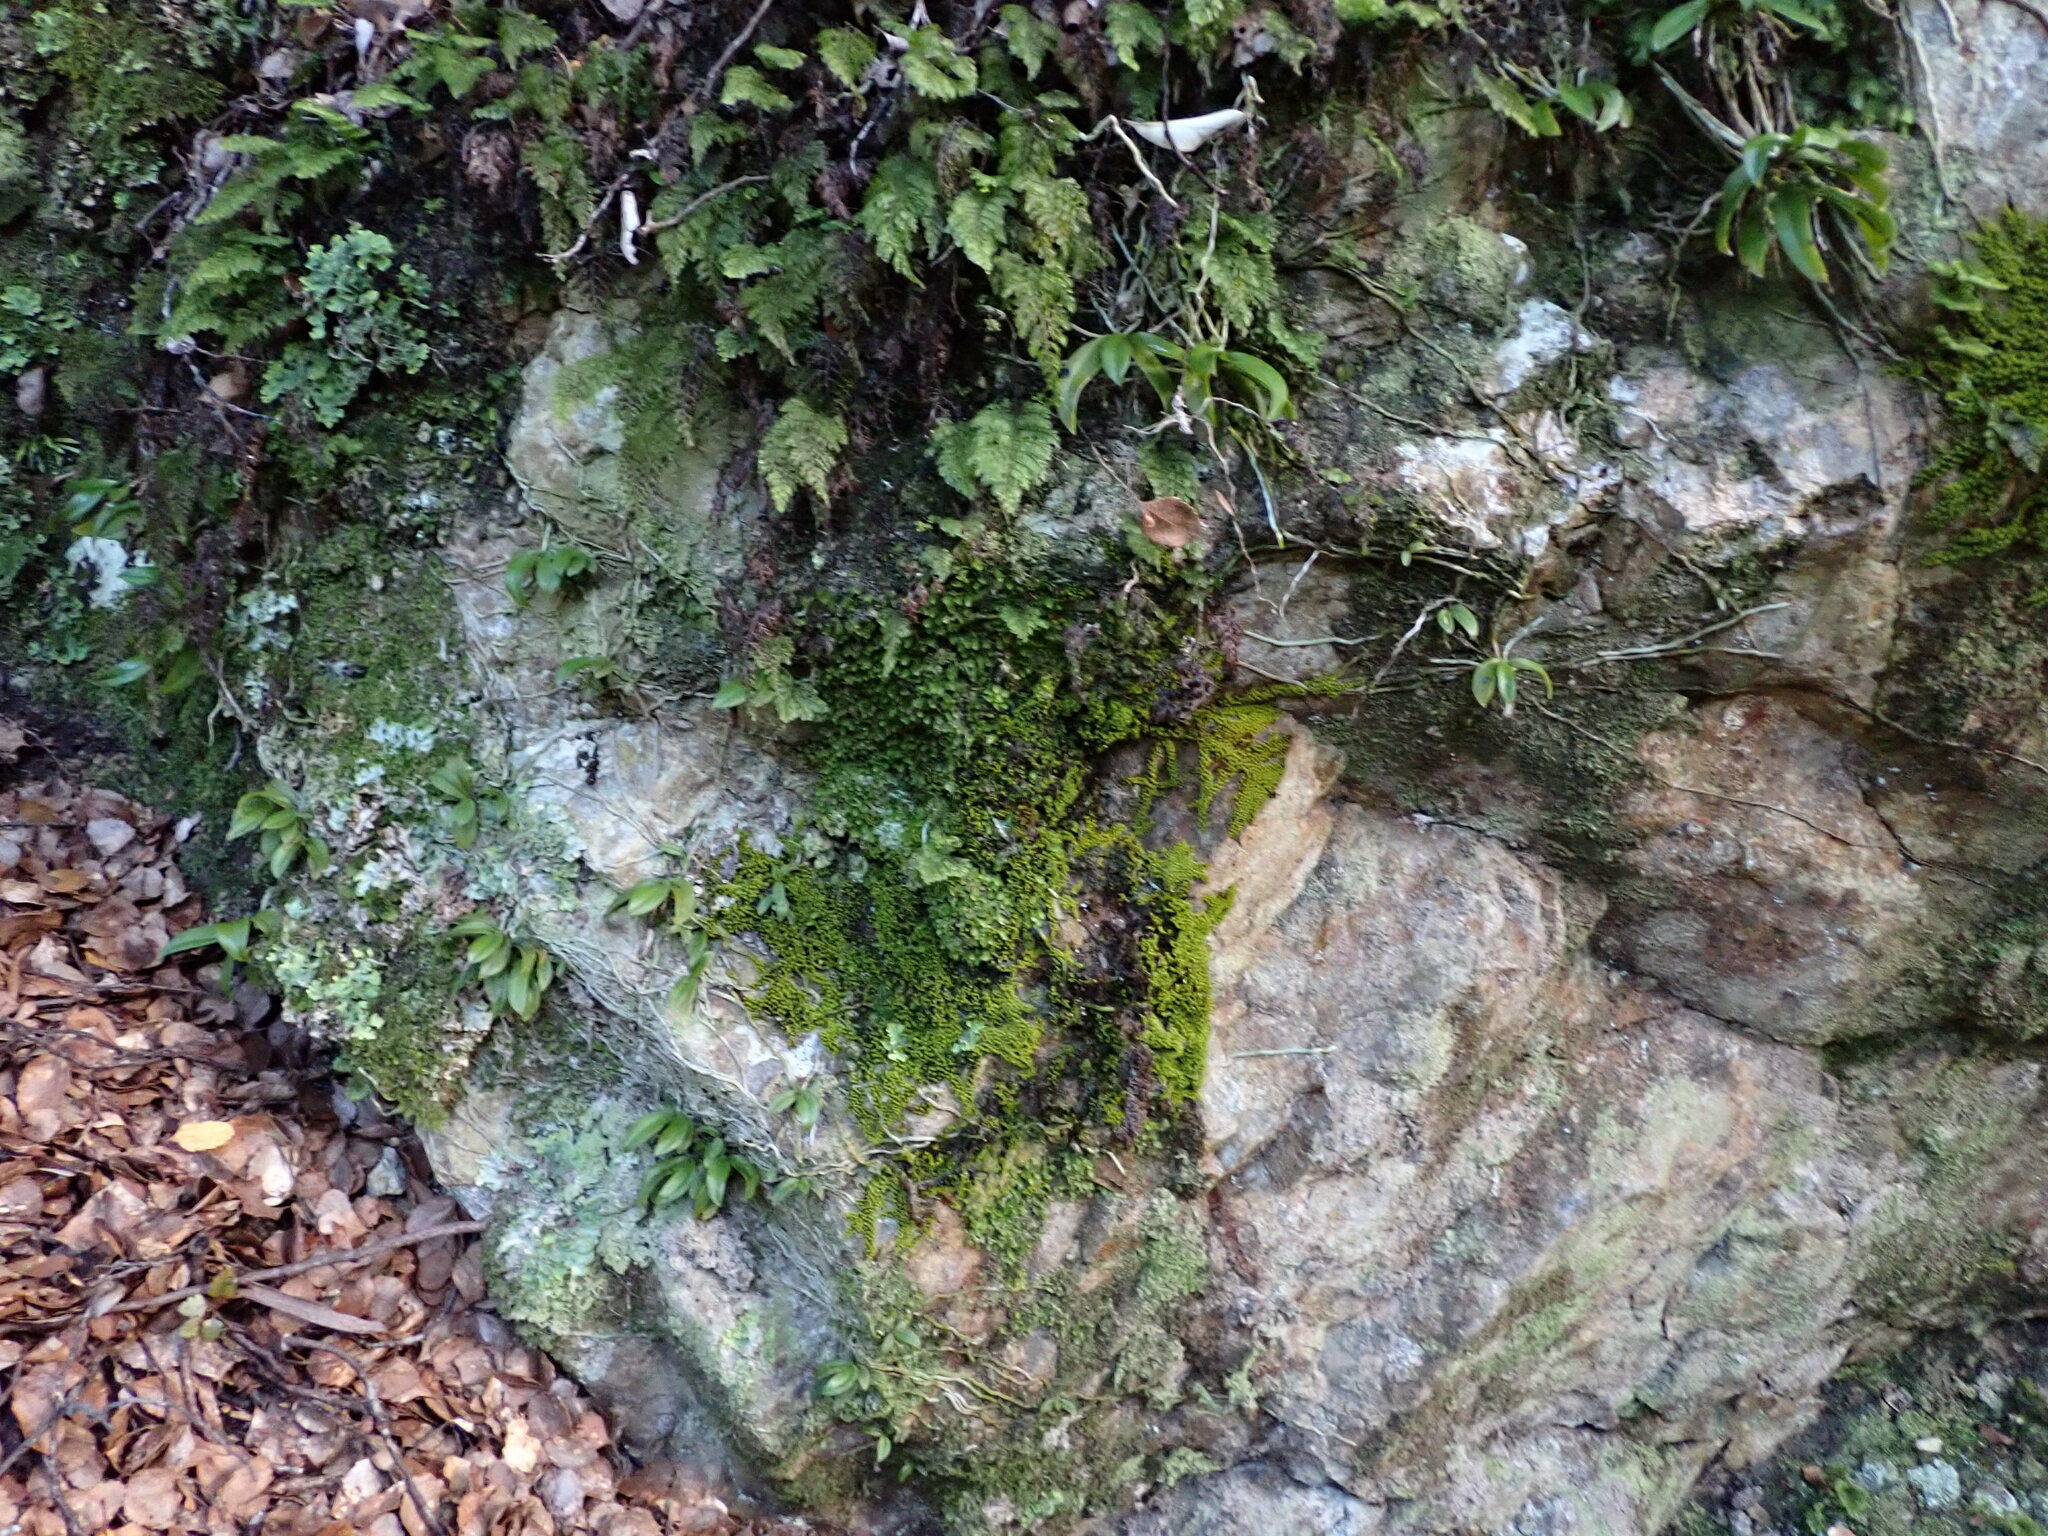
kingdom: Plantae
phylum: Tracheophyta
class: Liliopsida
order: Asparagales
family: Orchidaceae
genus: Drymoanthus
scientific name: Drymoanthus adversus
